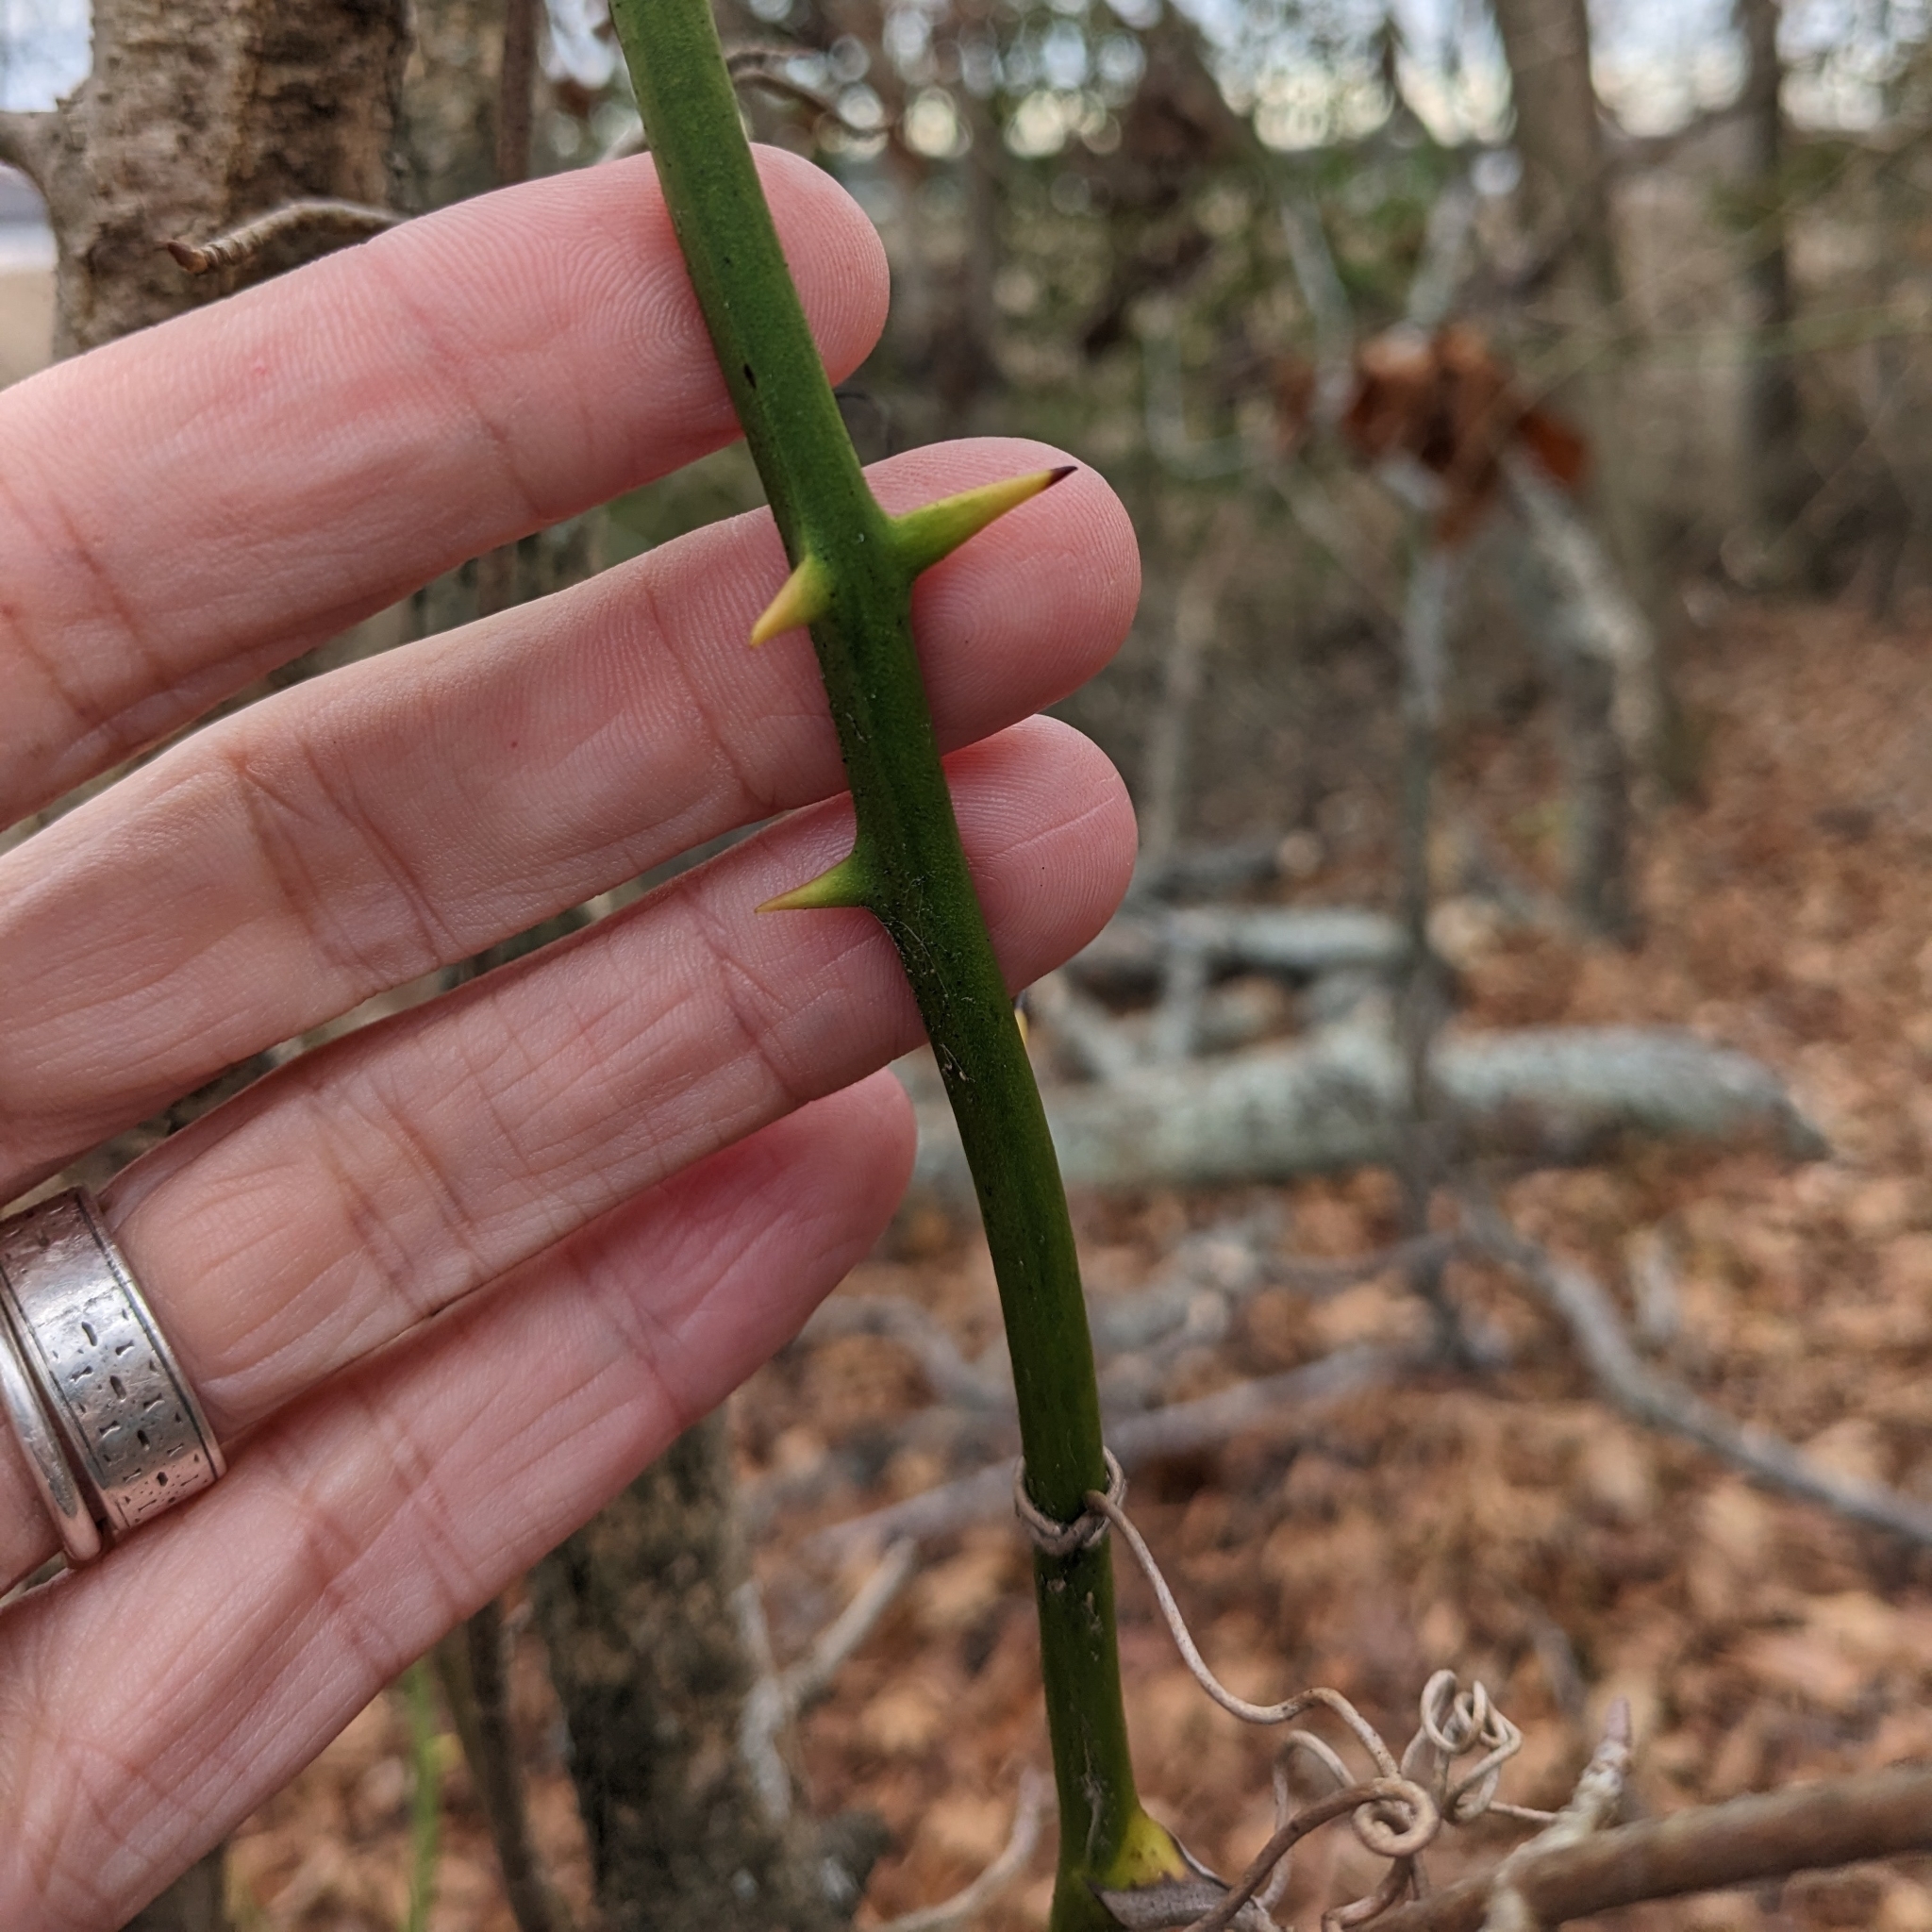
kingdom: Plantae
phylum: Tracheophyta
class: Liliopsida
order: Liliales
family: Smilacaceae
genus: Smilax
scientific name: Smilax rotundifolia
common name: Bullbriar
